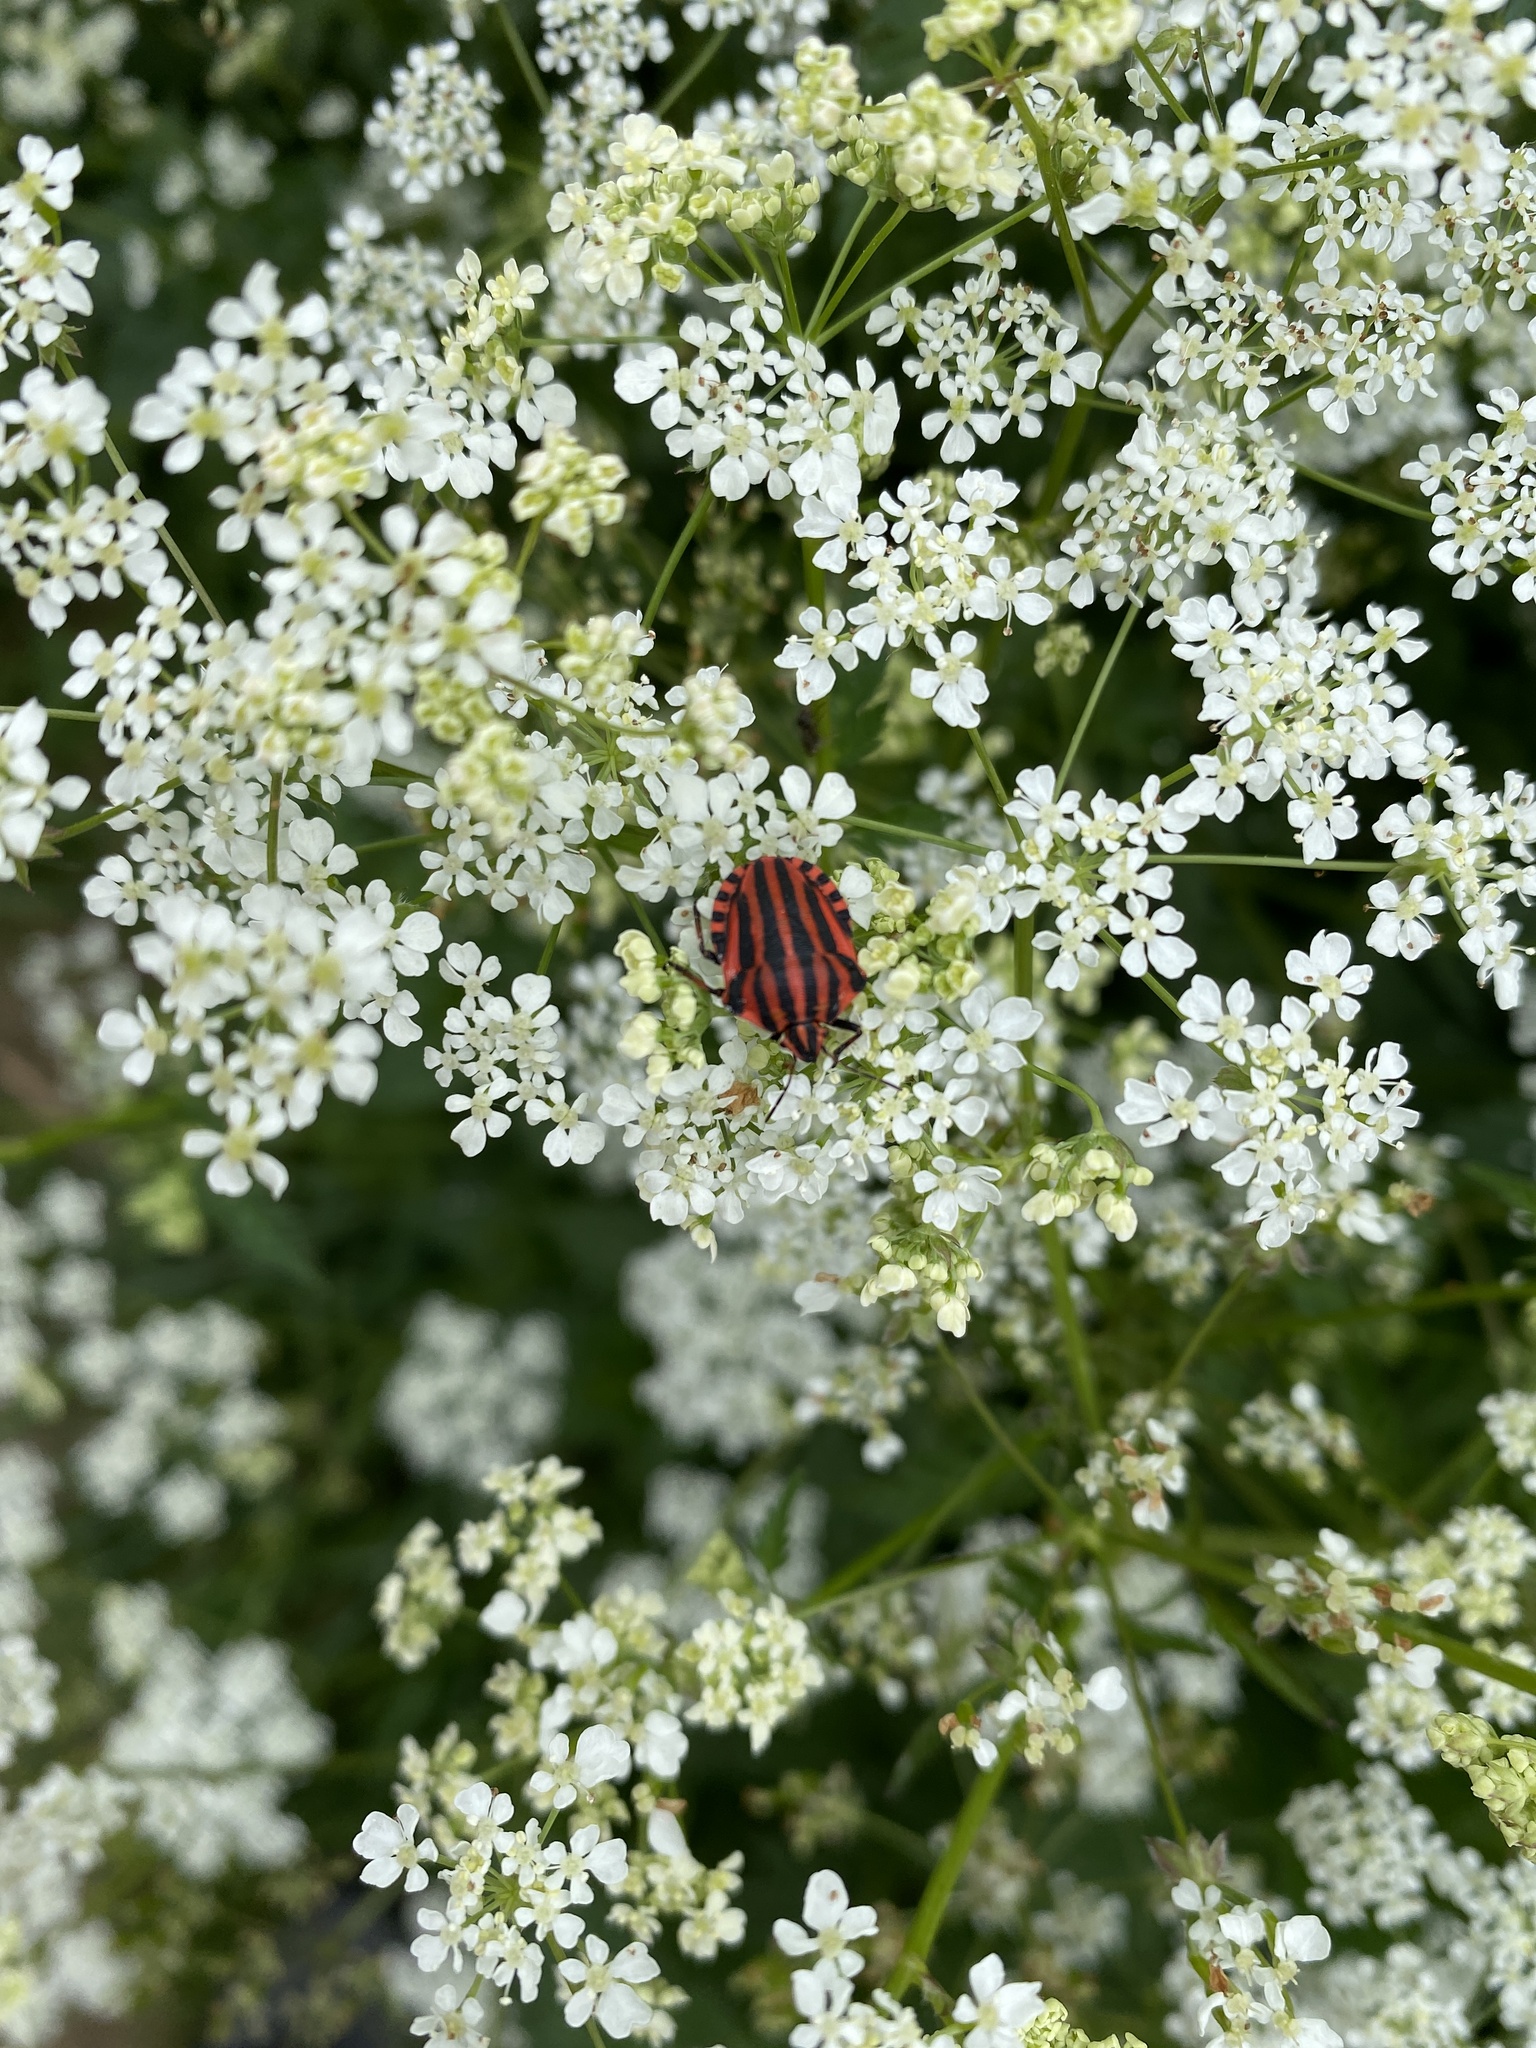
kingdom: Animalia
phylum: Arthropoda
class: Insecta
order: Hemiptera
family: Pentatomidae
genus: Graphosoma
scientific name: Graphosoma italicum
